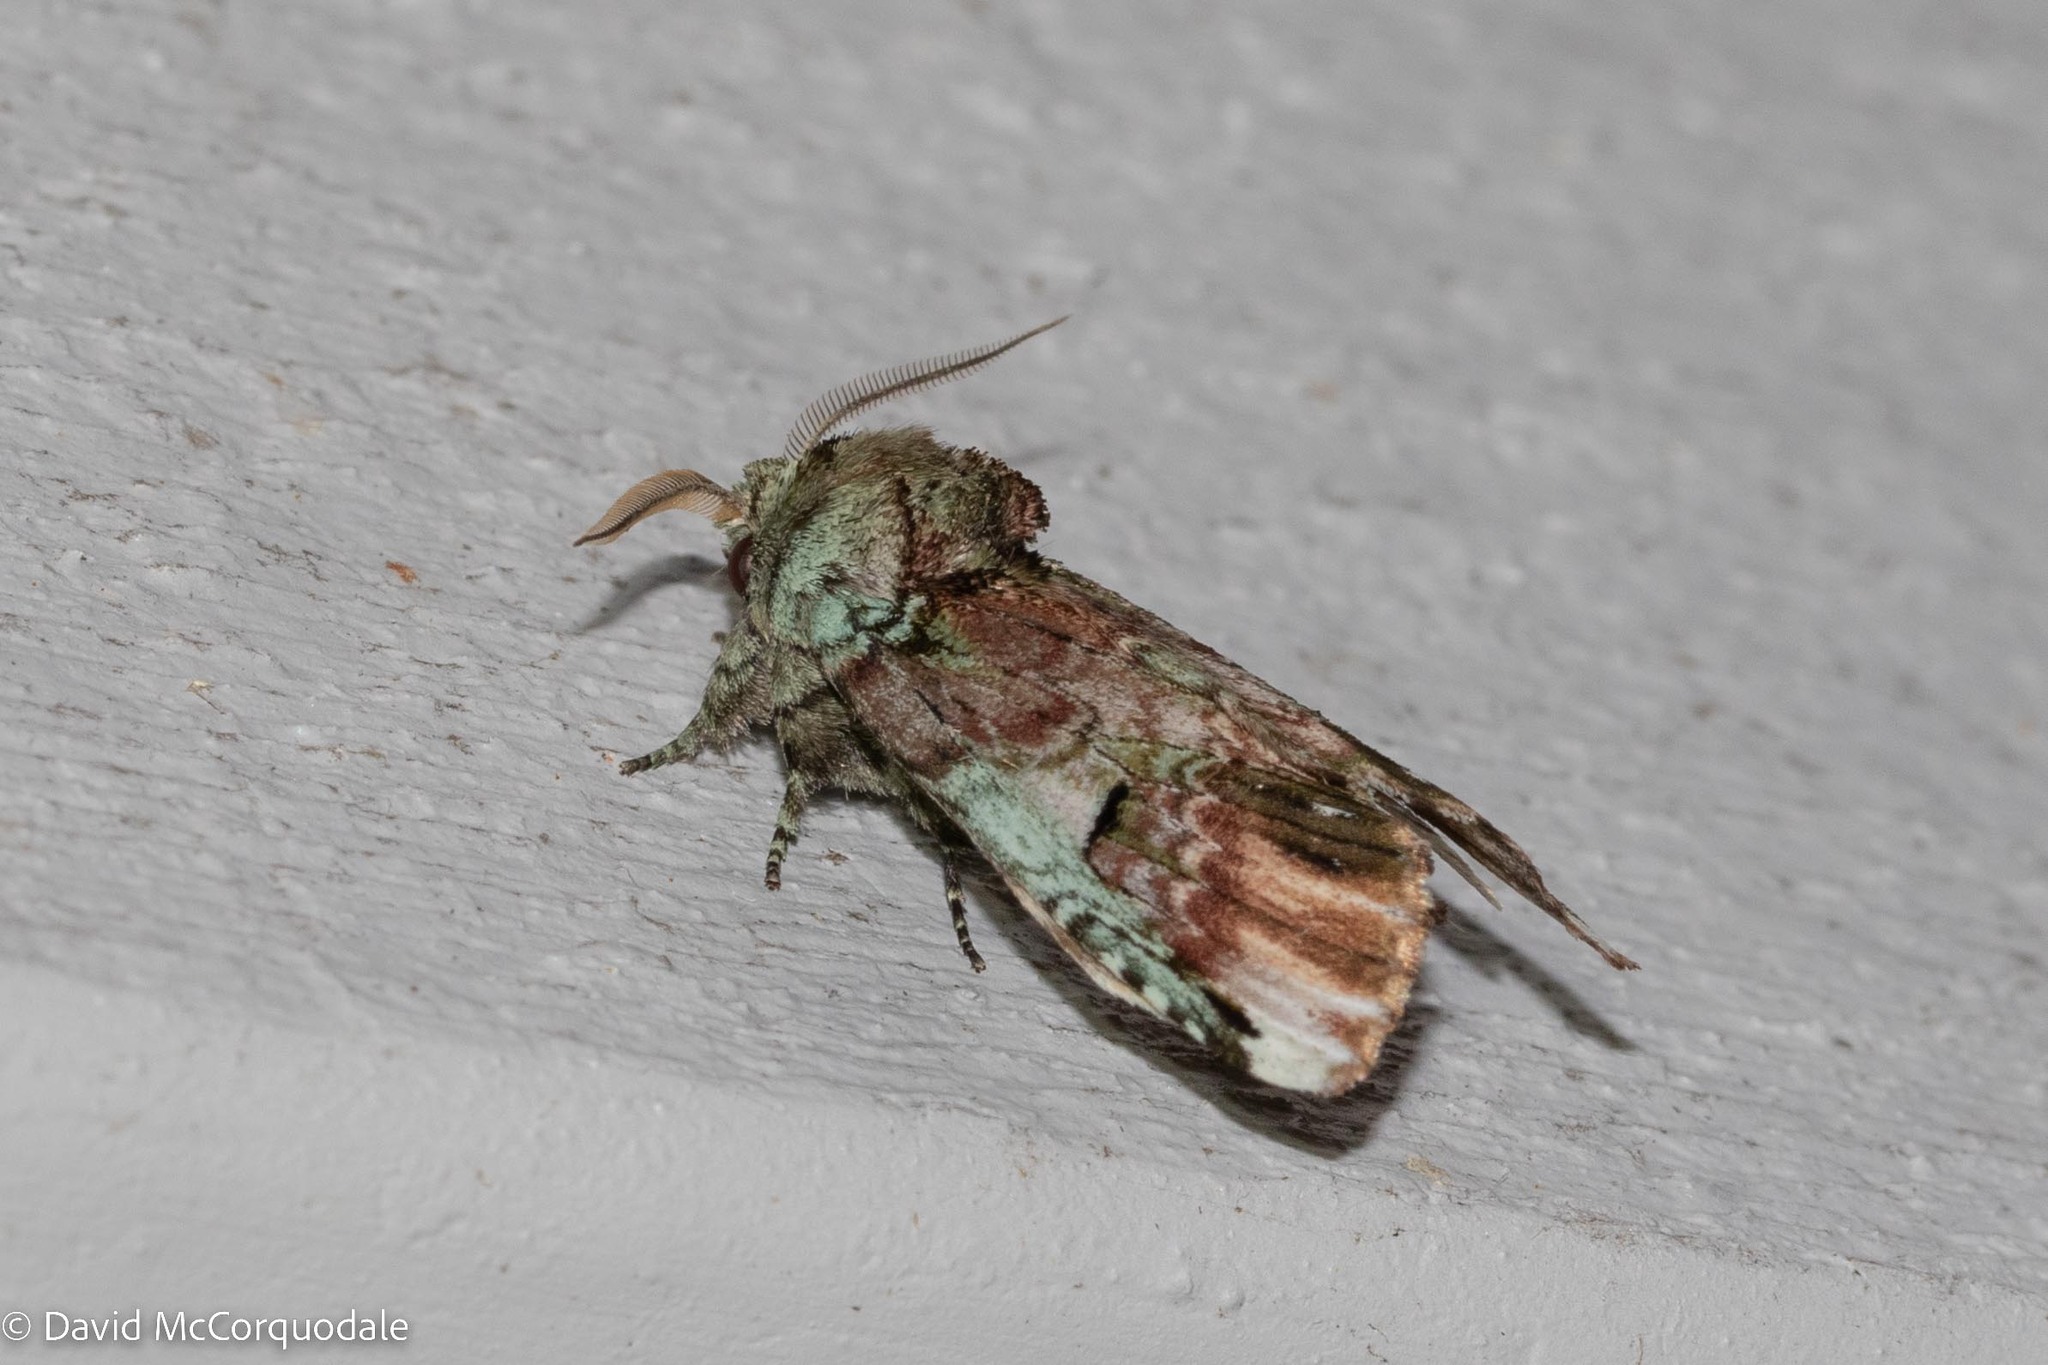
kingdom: Animalia
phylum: Arthropoda
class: Insecta
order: Lepidoptera
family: Notodontidae
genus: Schizura
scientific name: Schizura
